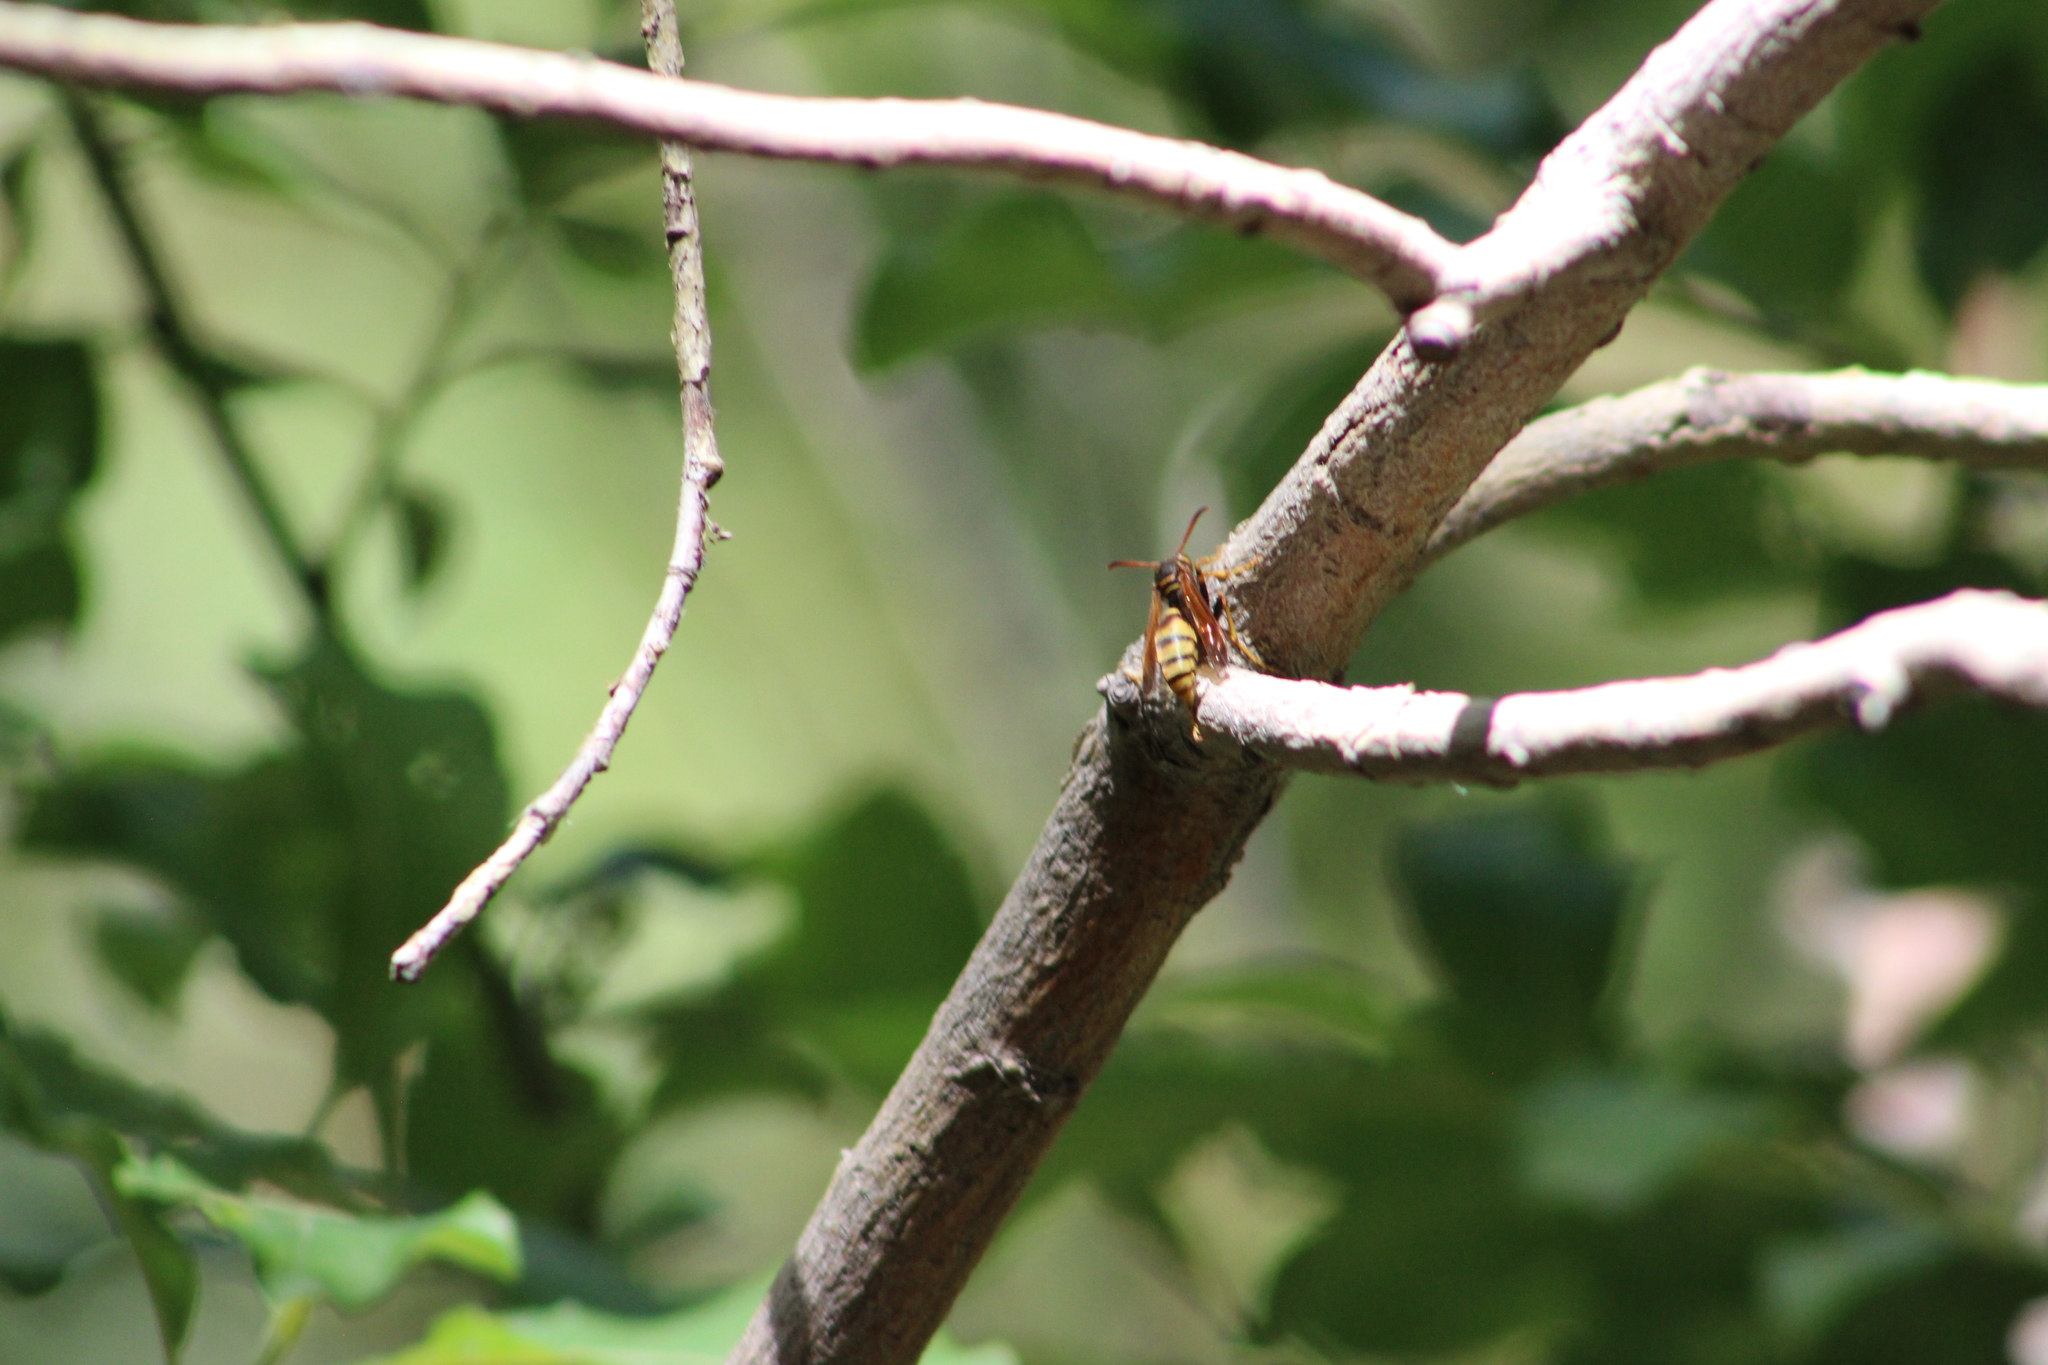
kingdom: Animalia
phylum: Arthropoda
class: Insecta
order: Hymenoptera
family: Vespidae
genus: Mischocyttarus
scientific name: Mischocyttarus flavitarsis
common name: Wasp
